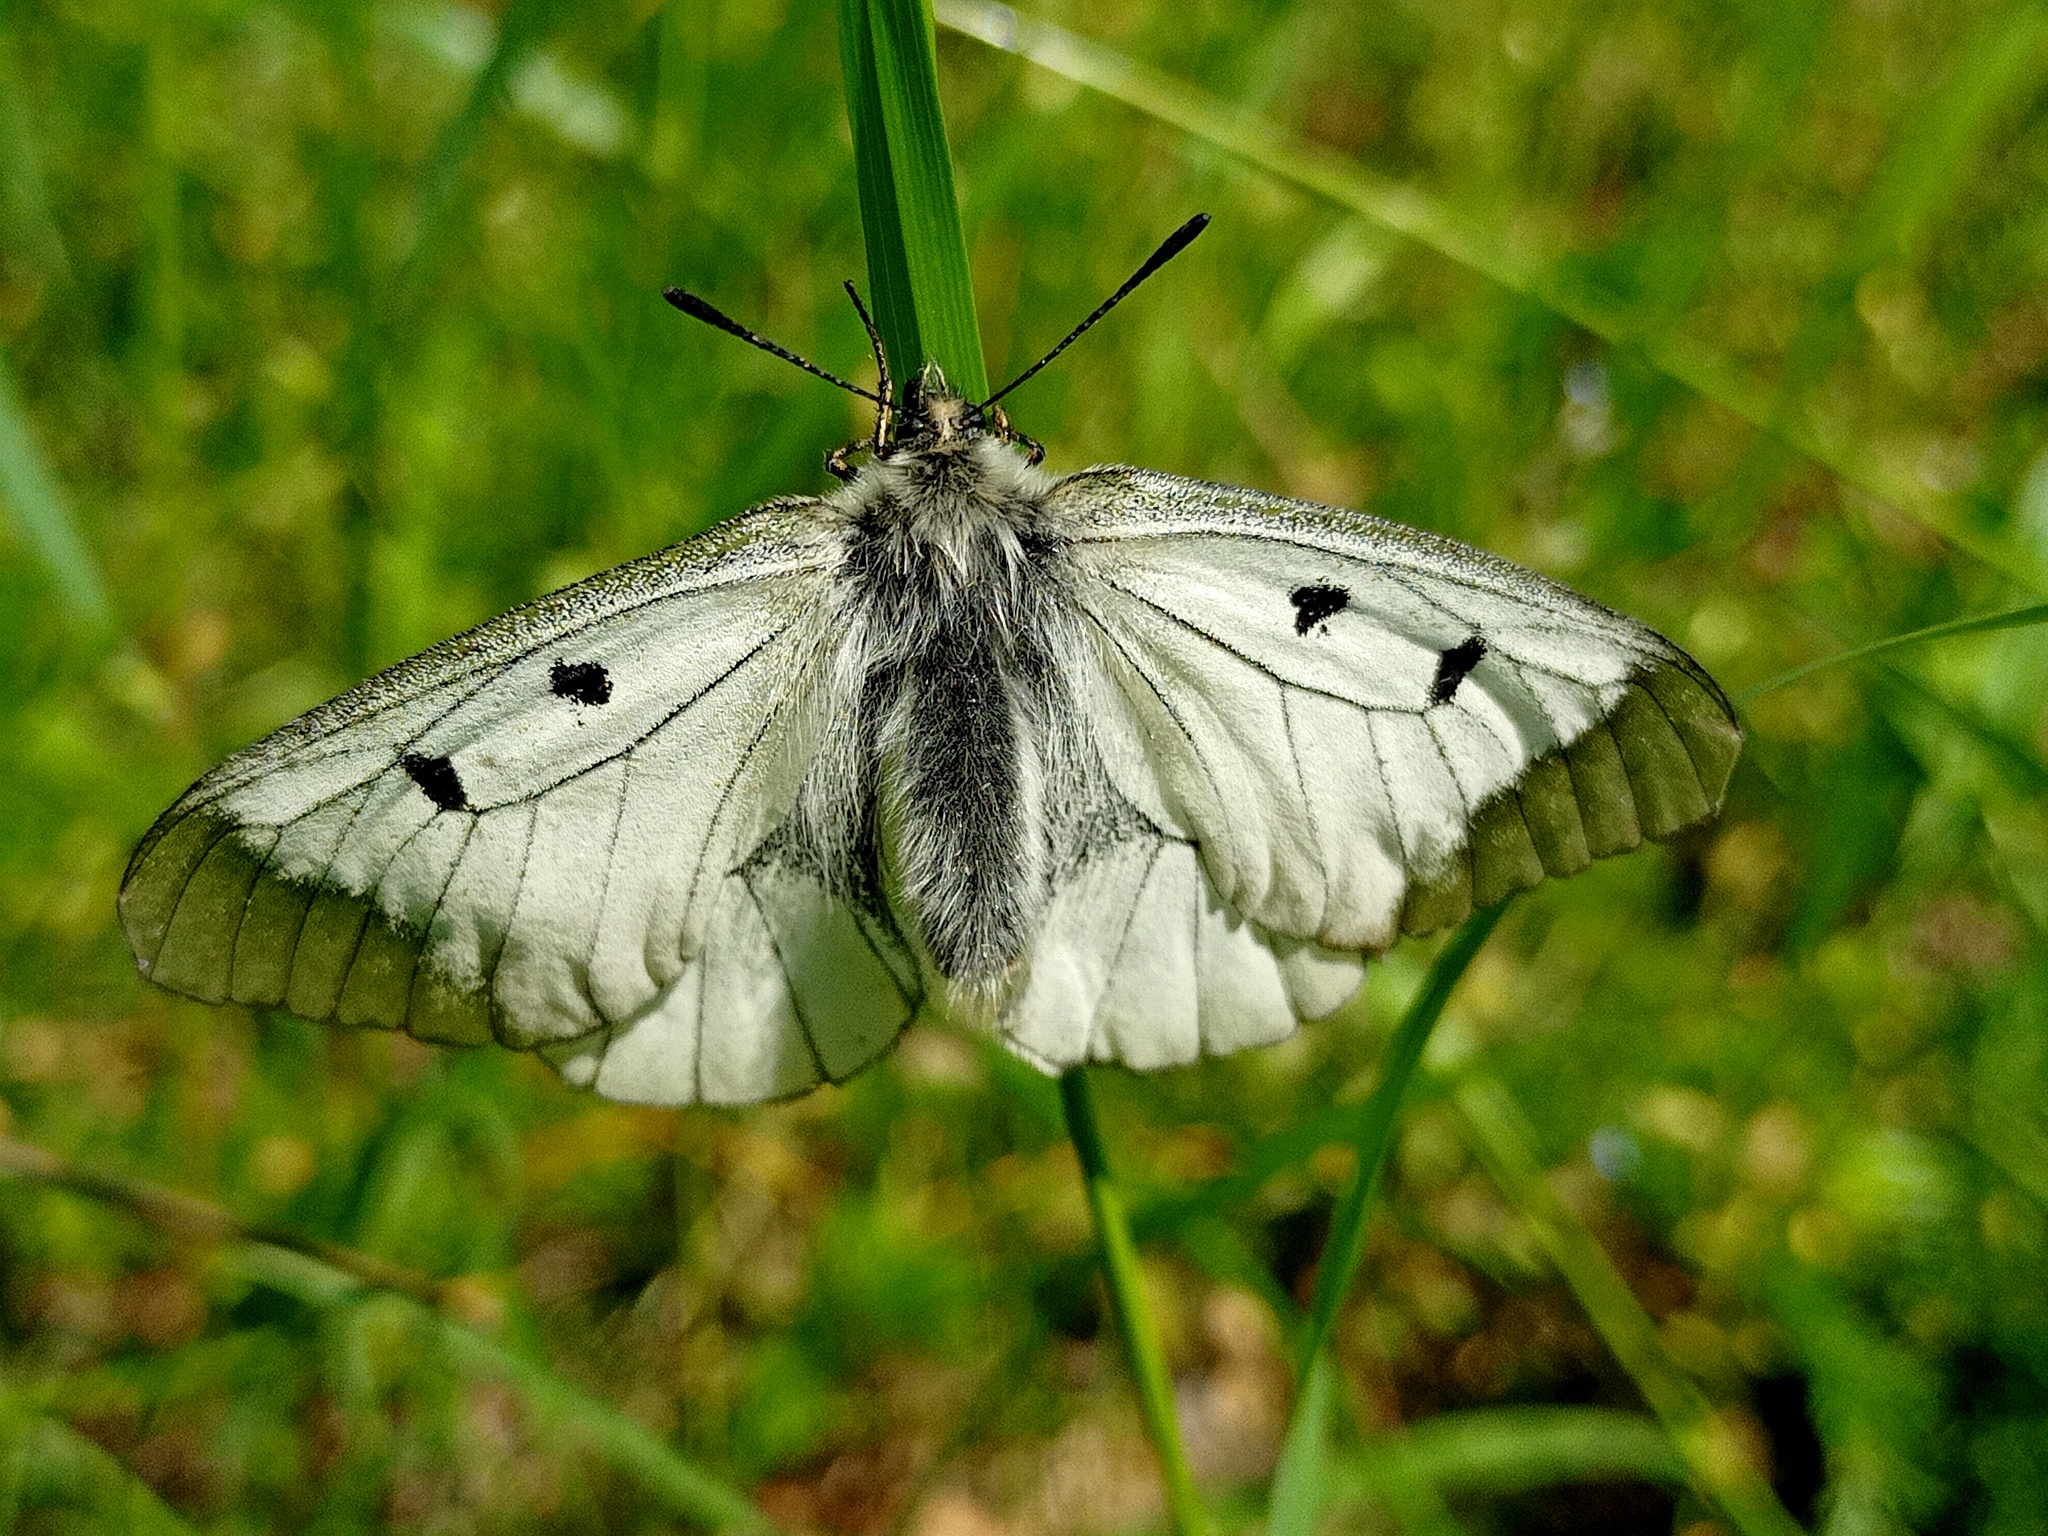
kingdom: Animalia
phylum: Arthropoda
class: Insecta
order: Lepidoptera
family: Papilionidae
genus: Parnassius
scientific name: Parnassius mnemosyne
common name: Clouded apollo
